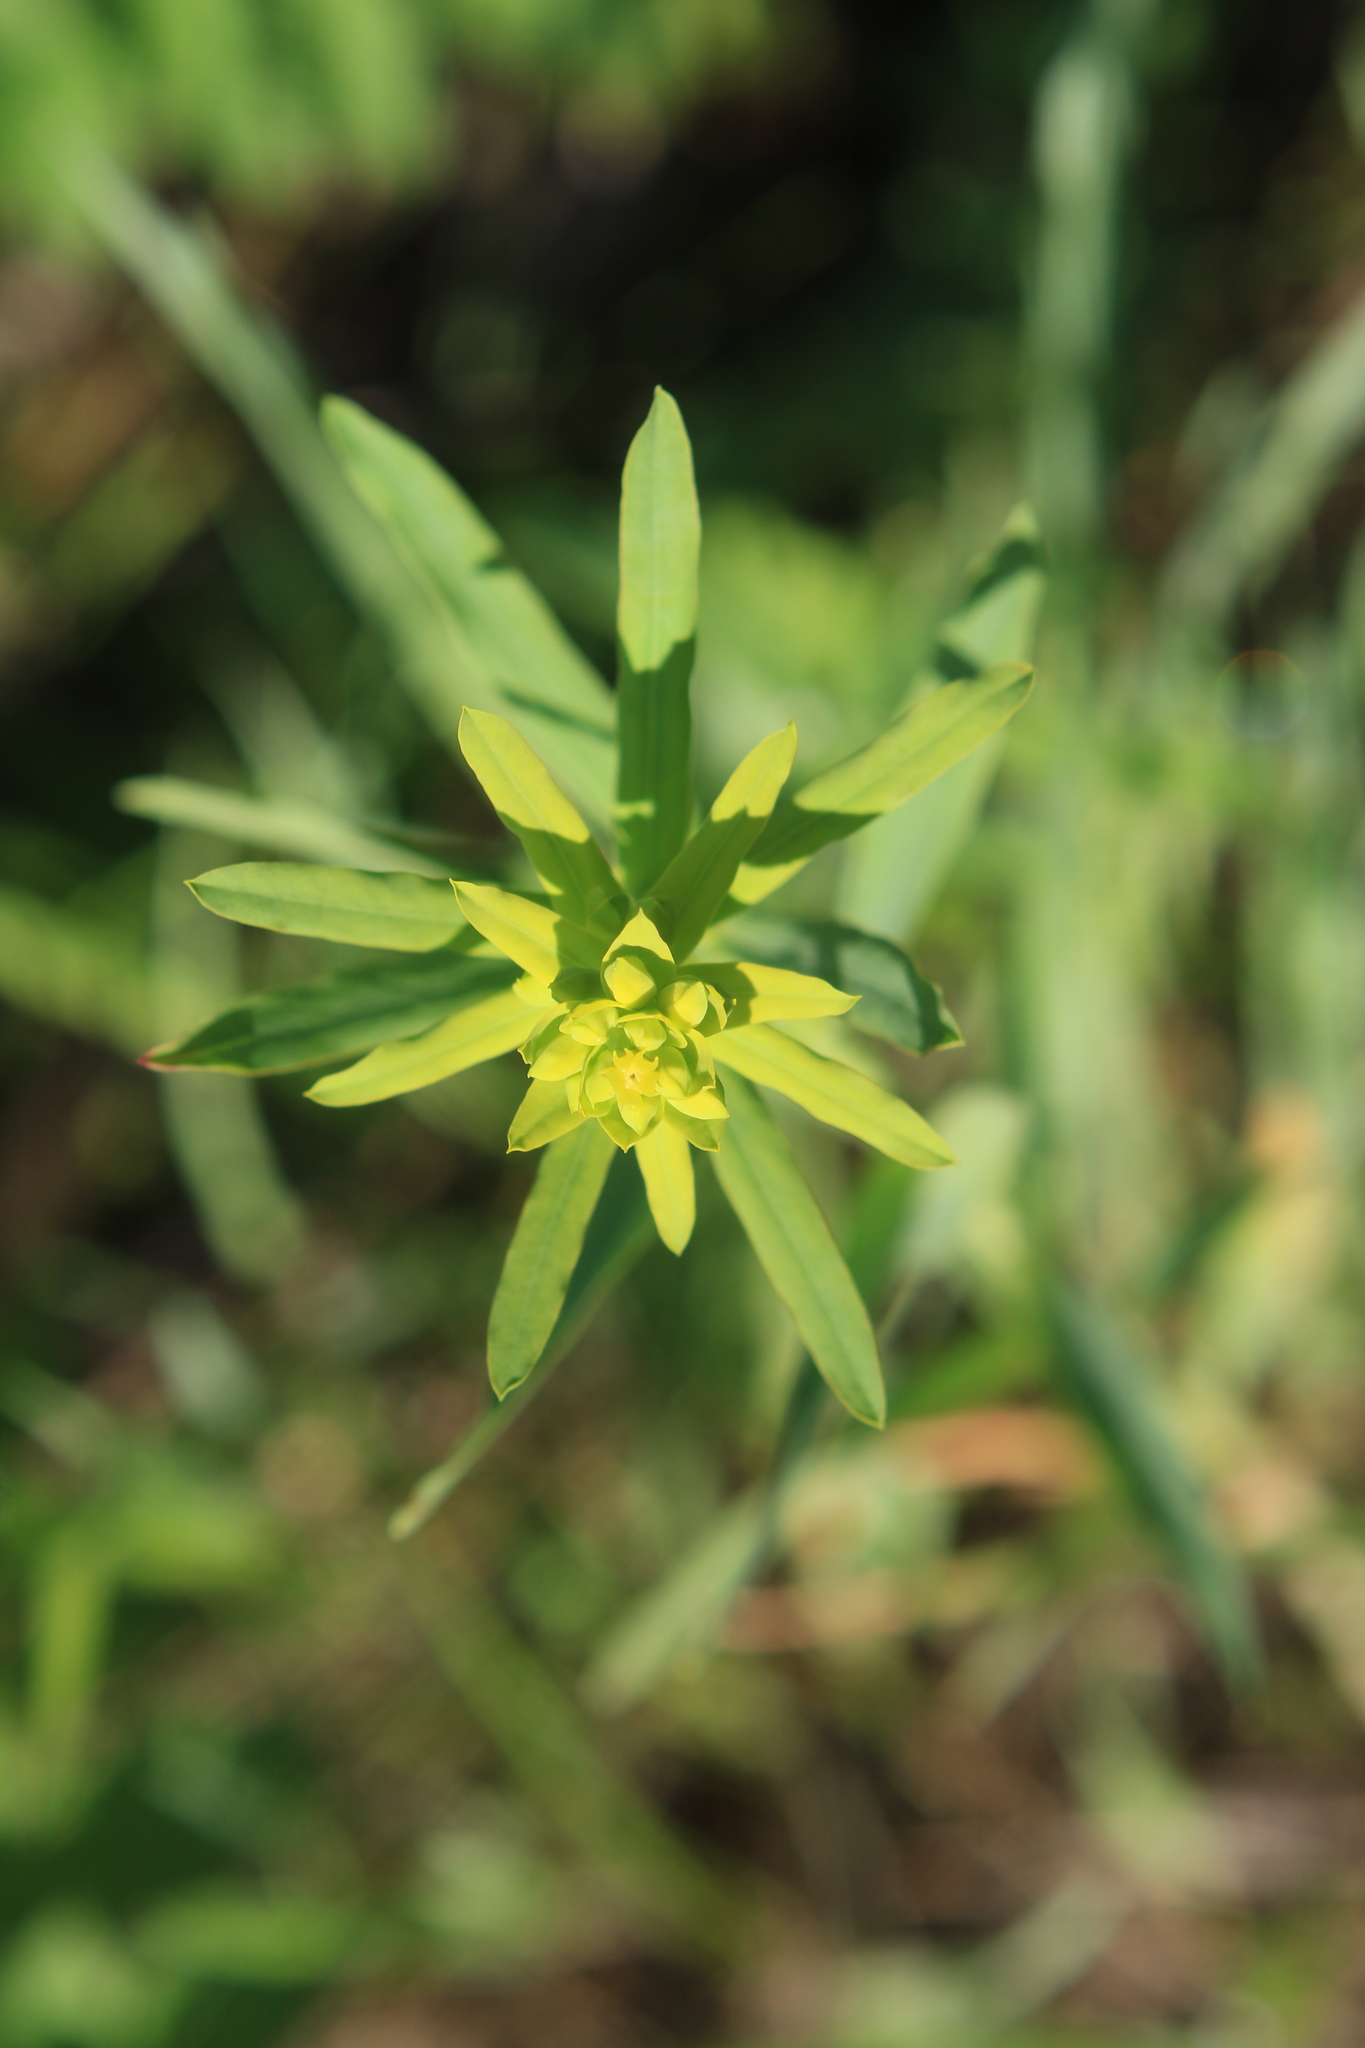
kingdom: Plantae
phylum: Tracheophyta
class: Magnoliopsida
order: Malpighiales
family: Euphorbiaceae
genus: Euphorbia
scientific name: Euphorbia virgata
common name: Leafy spurge
